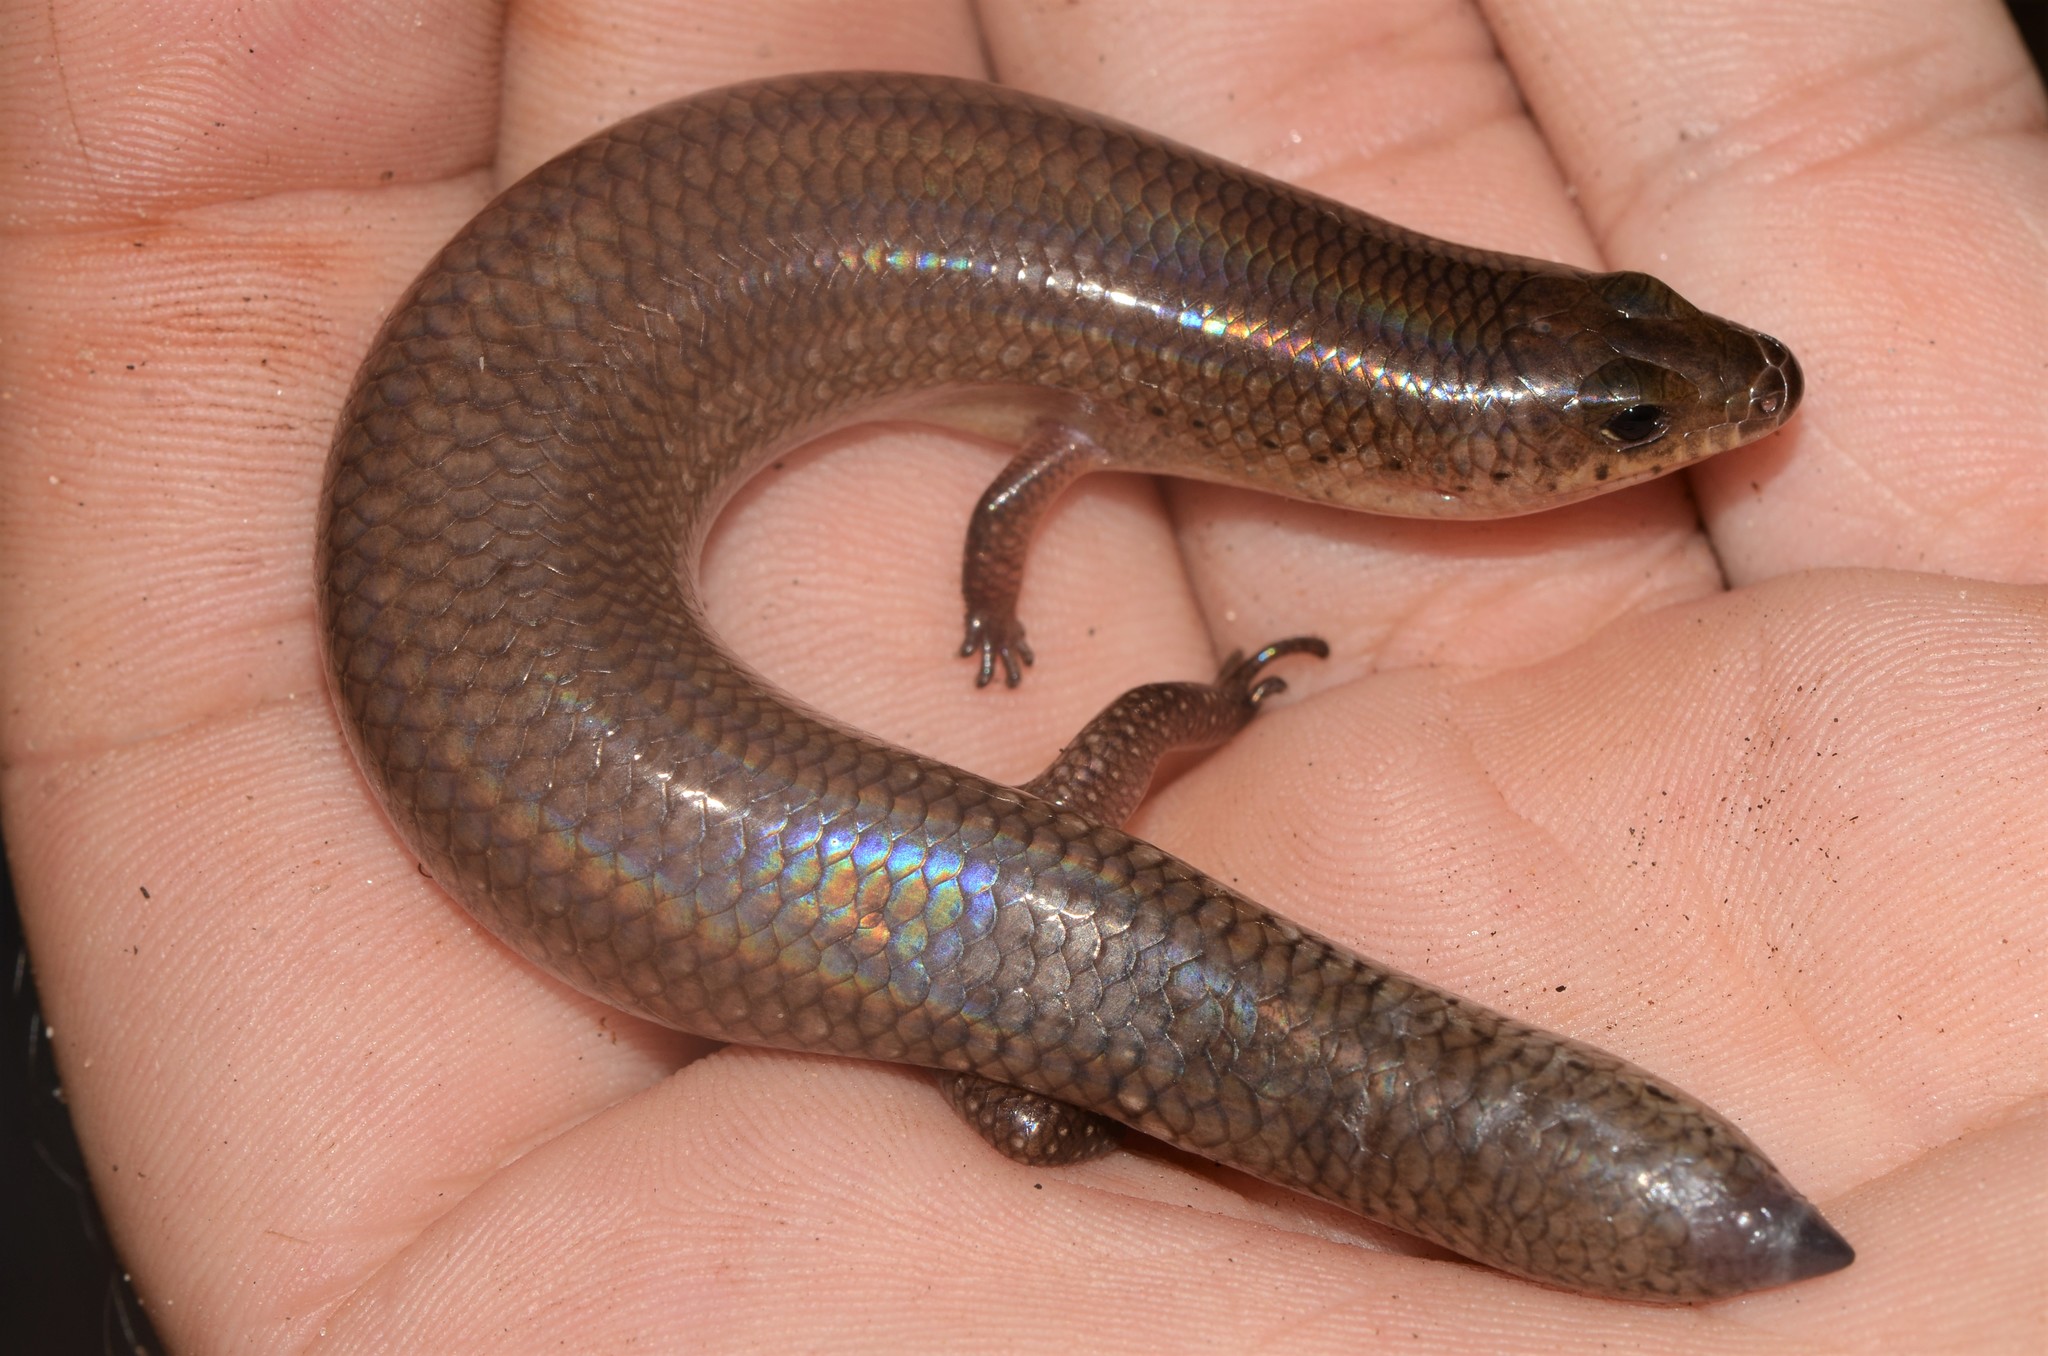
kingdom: Animalia
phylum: Chordata
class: Squamata
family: Scincidae
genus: Mochlus
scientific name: Mochlus sundevallii
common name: Peters' eyelid skink
